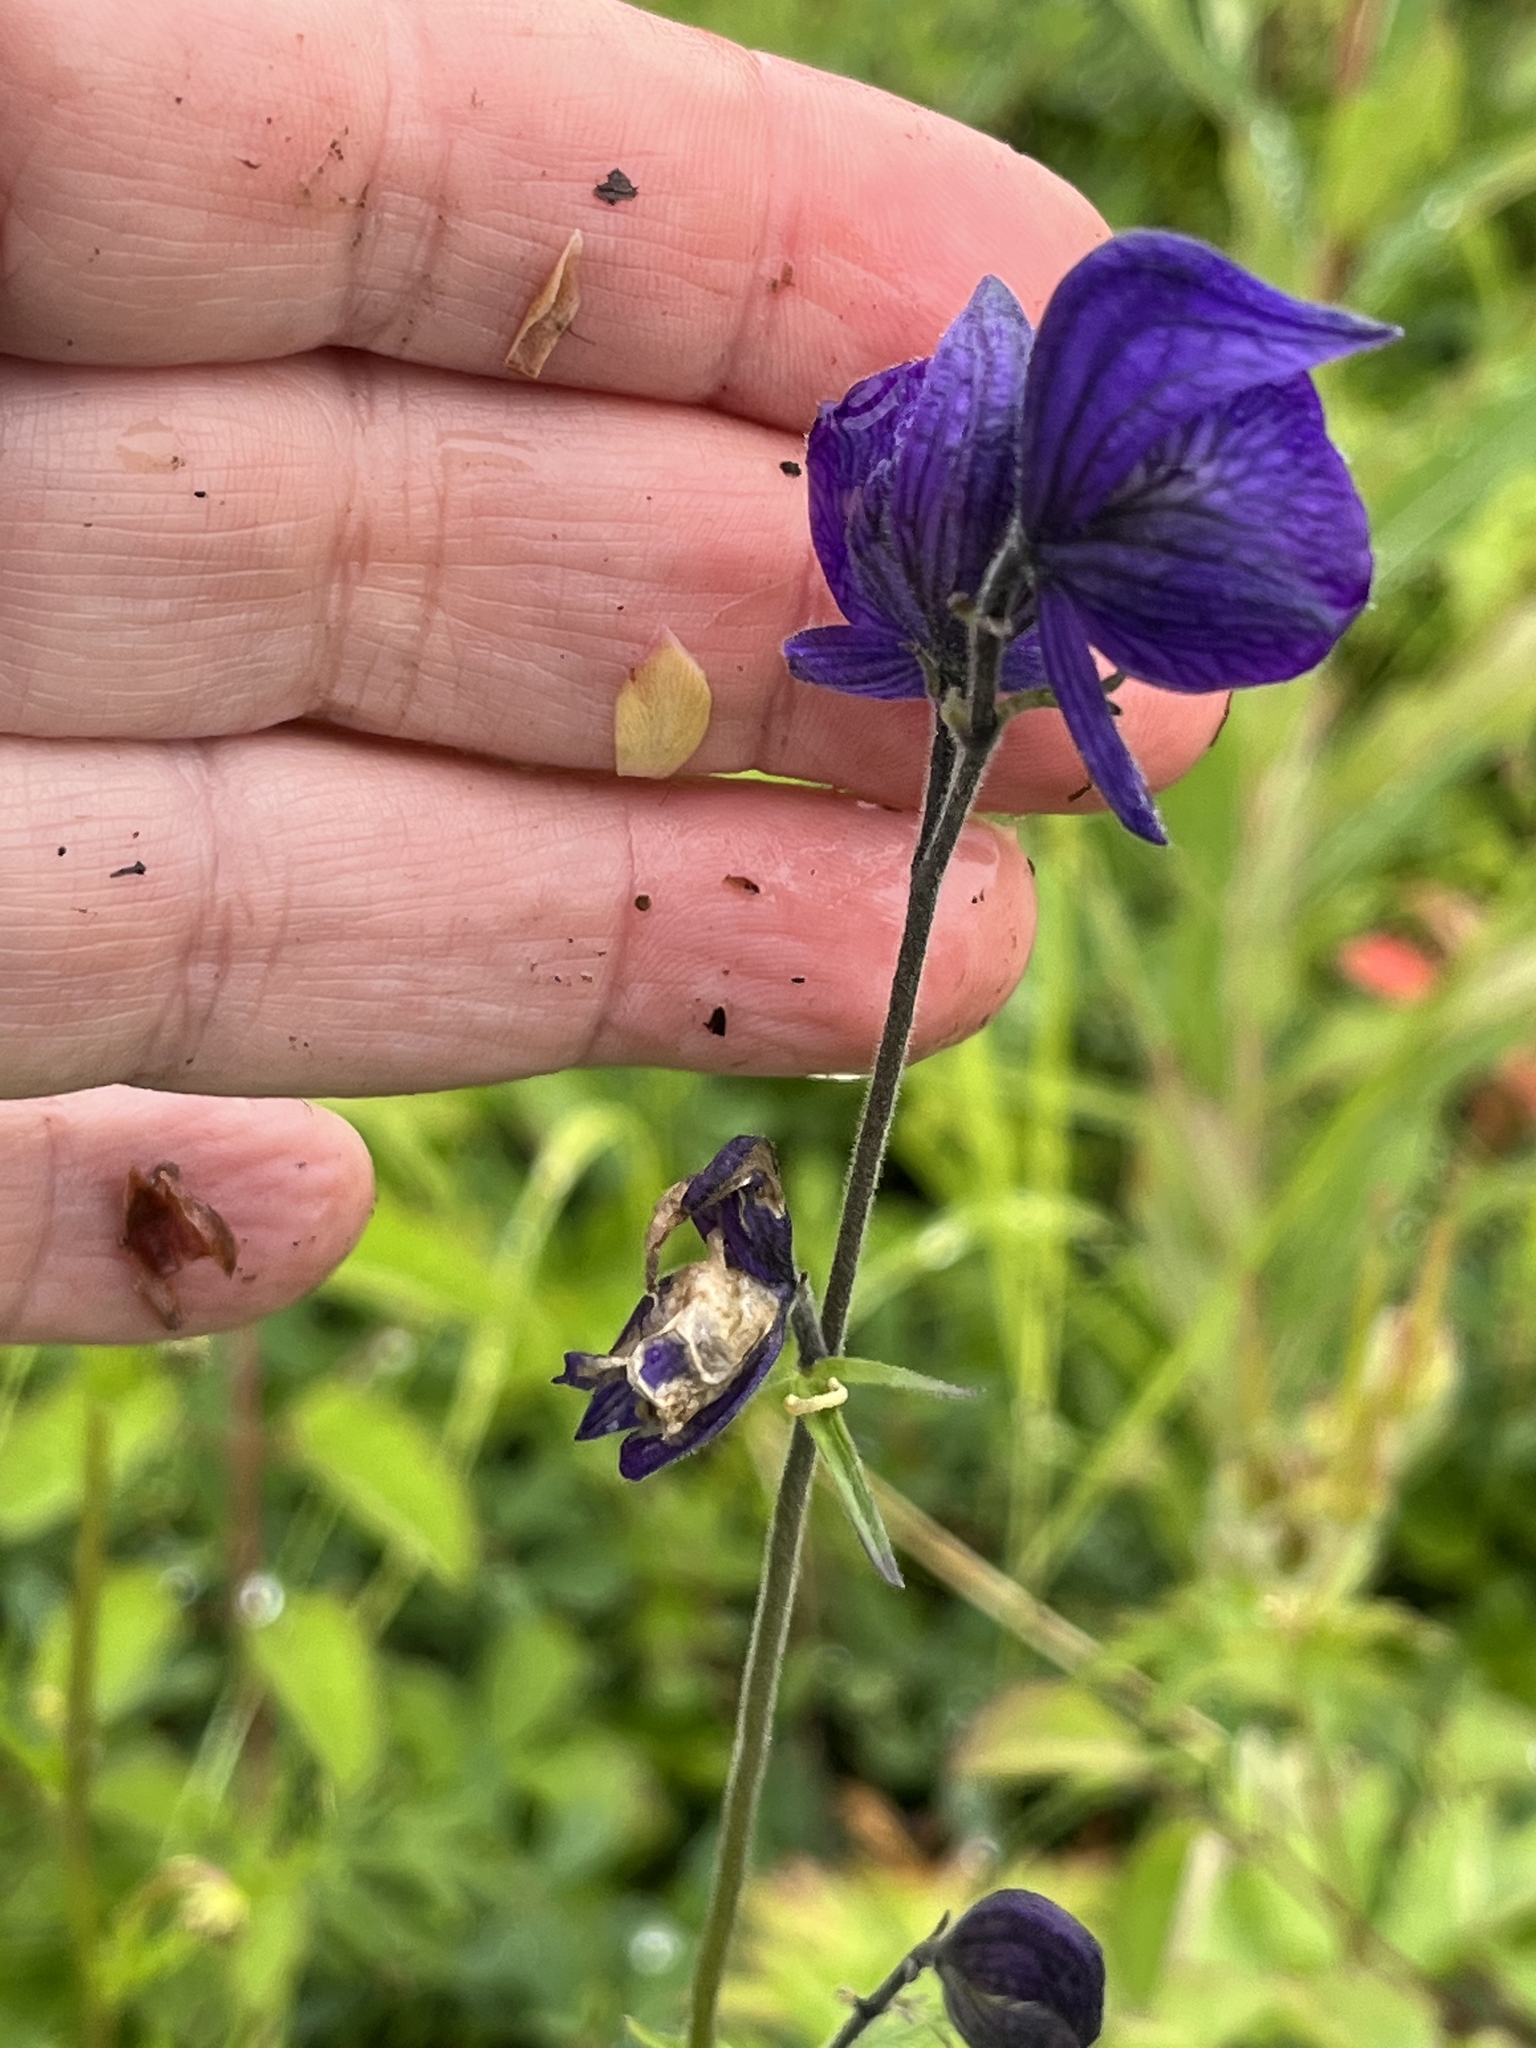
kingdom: Plantae
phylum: Tracheophyta
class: Magnoliopsida
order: Ranunculales
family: Ranunculaceae
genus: Aconitum
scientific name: Aconitum delphiniifolium
